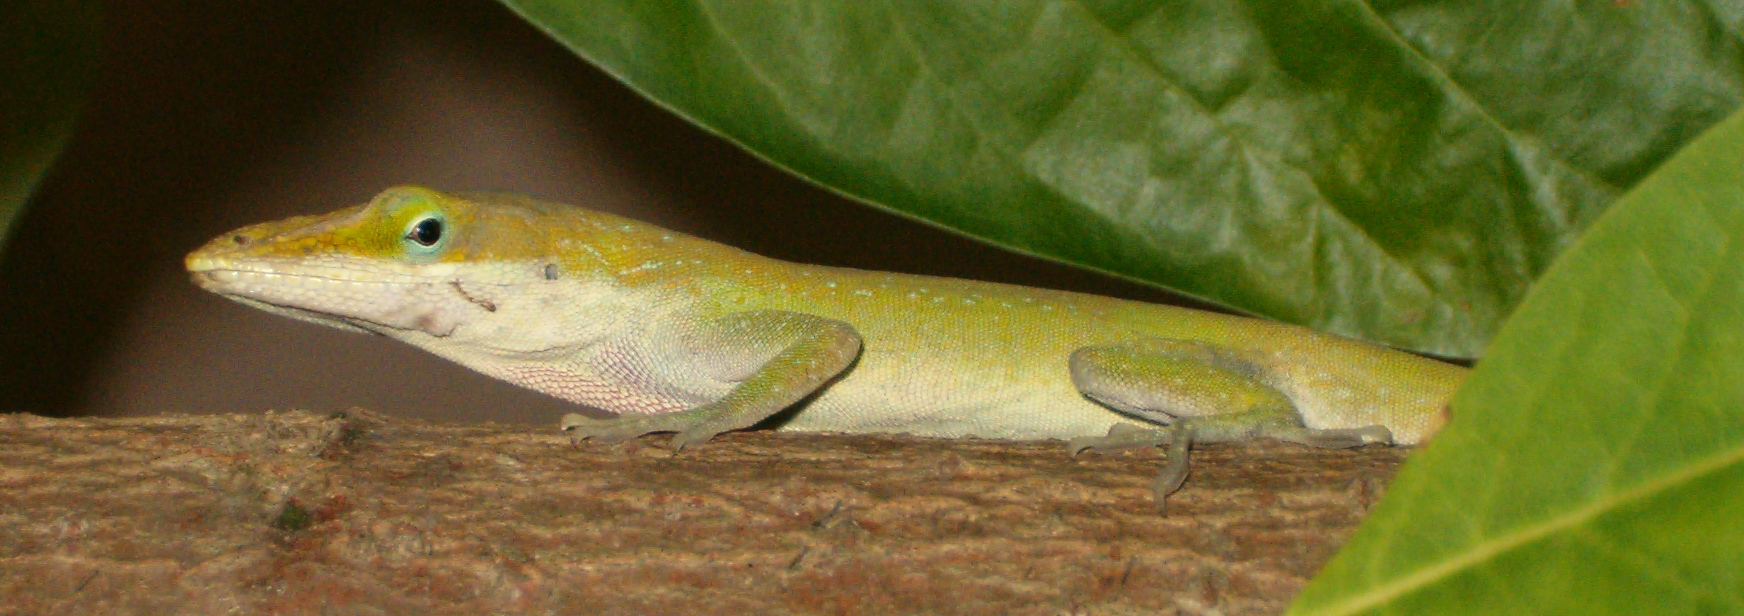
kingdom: Animalia
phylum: Chordata
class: Squamata
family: Dactyloidae
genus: Anolis
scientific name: Anolis carolinensis
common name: Green anole
